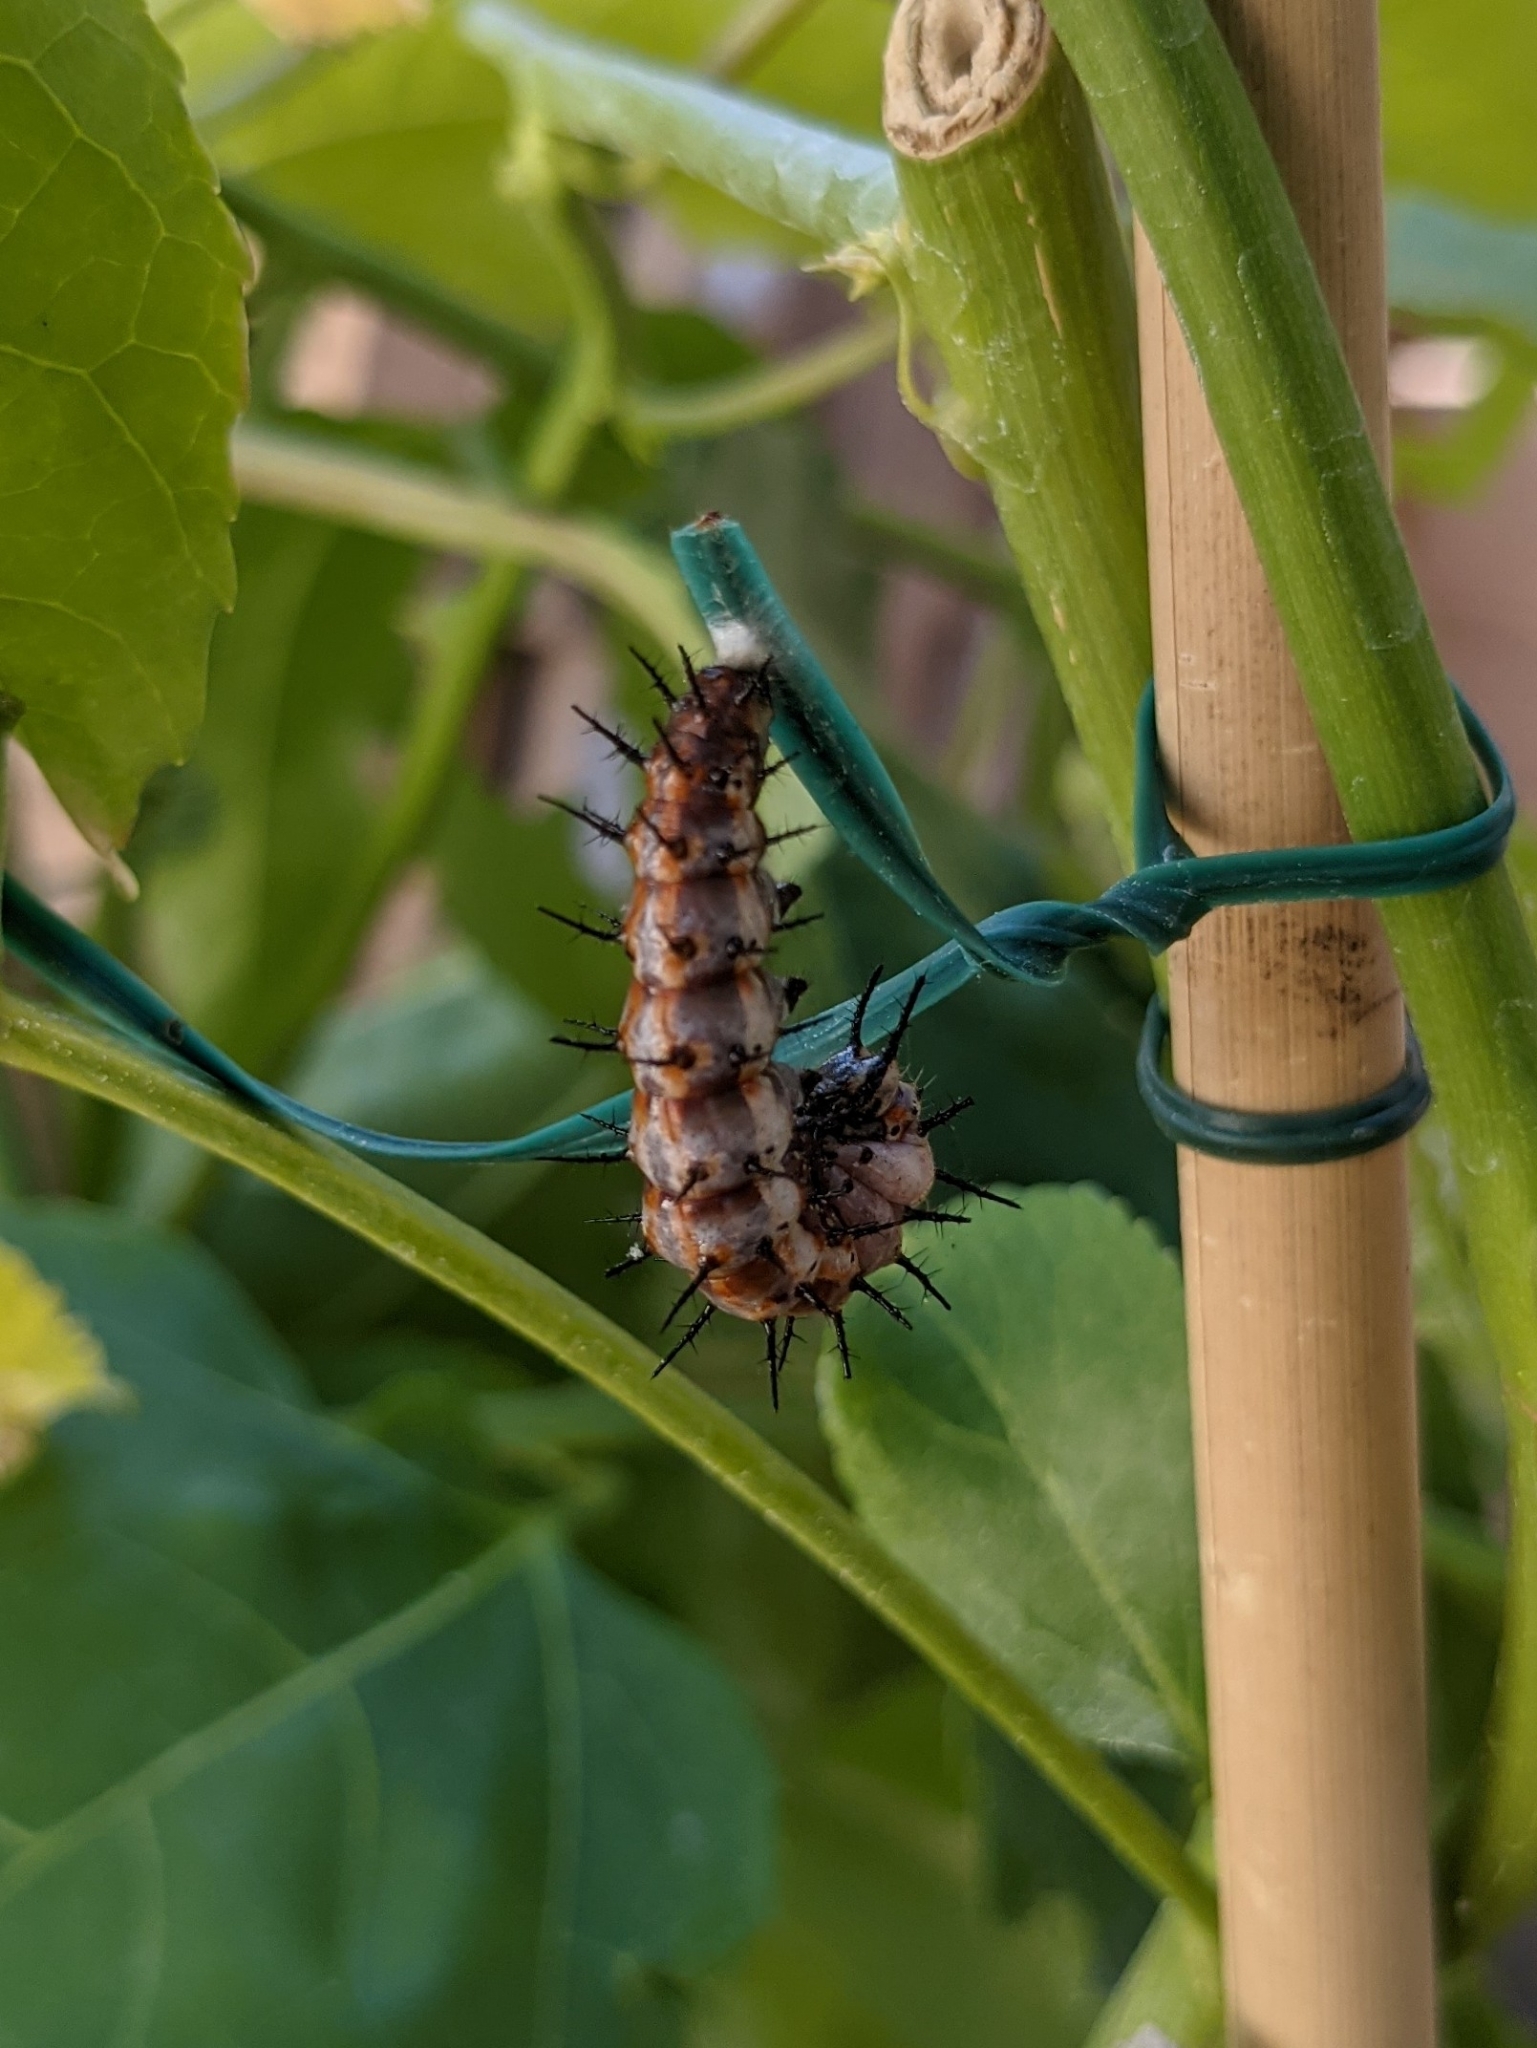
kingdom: Animalia
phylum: Arthropoda
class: Insecta
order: Lepidoptera
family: Nymphalidae
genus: Dione
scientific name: Dione vanillae
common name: Gulf fritillary
